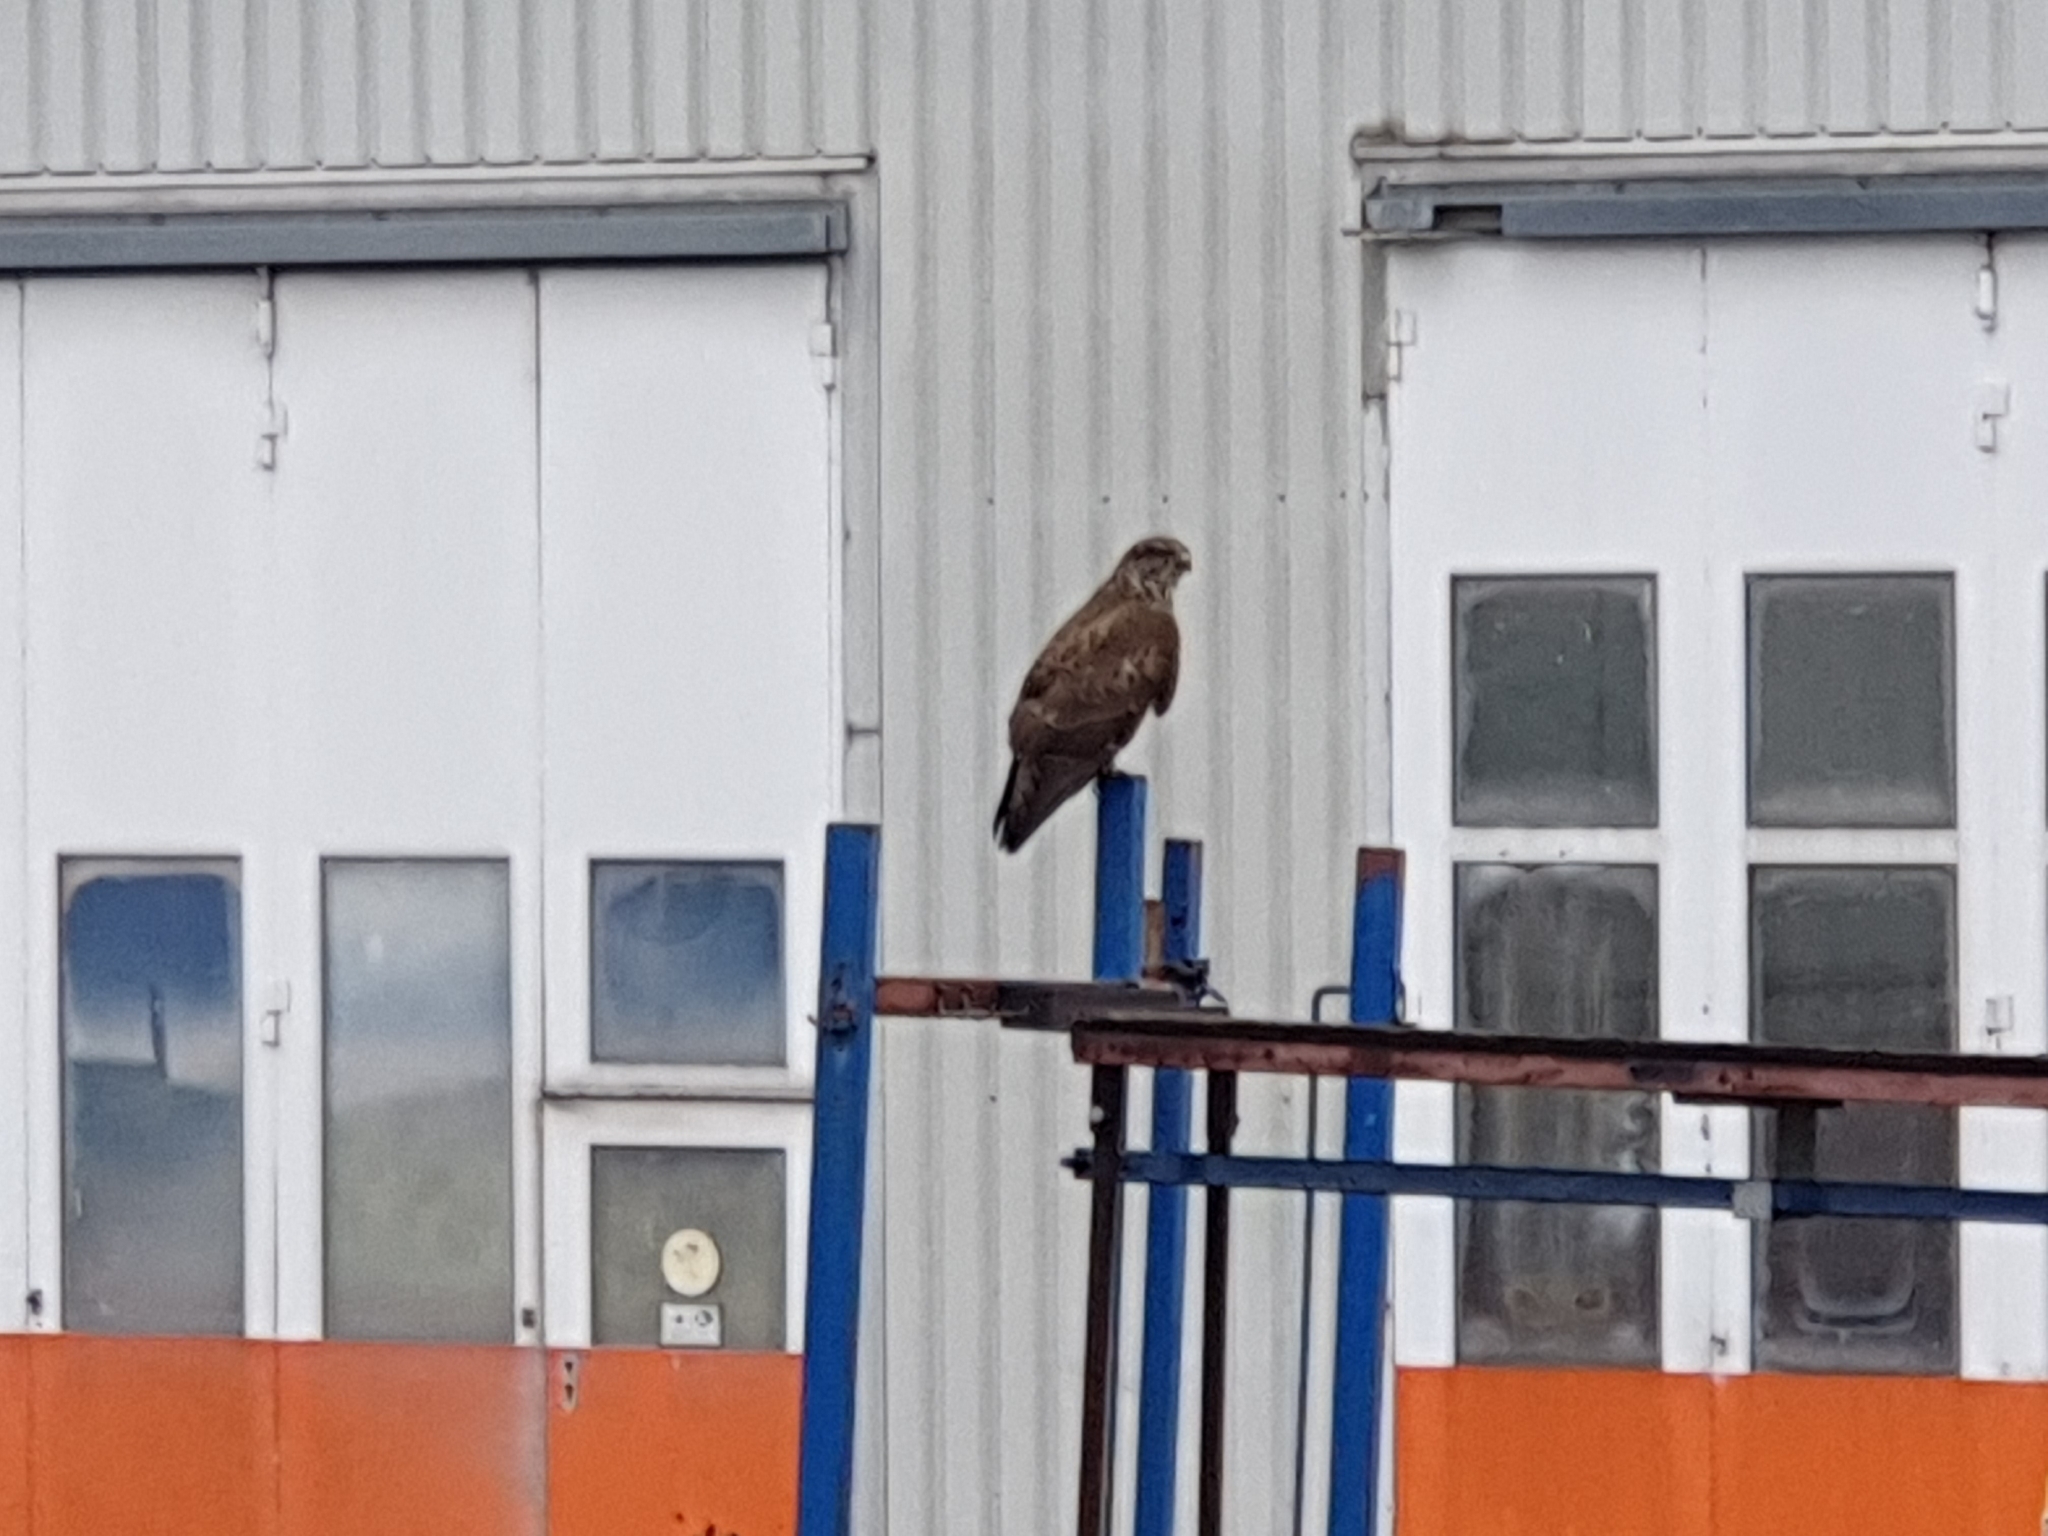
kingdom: Animalia
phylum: Chordata
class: Aves
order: Accipitriformes
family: Accipitridae
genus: Buteo
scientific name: Buteo buteo
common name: Common buzzard
